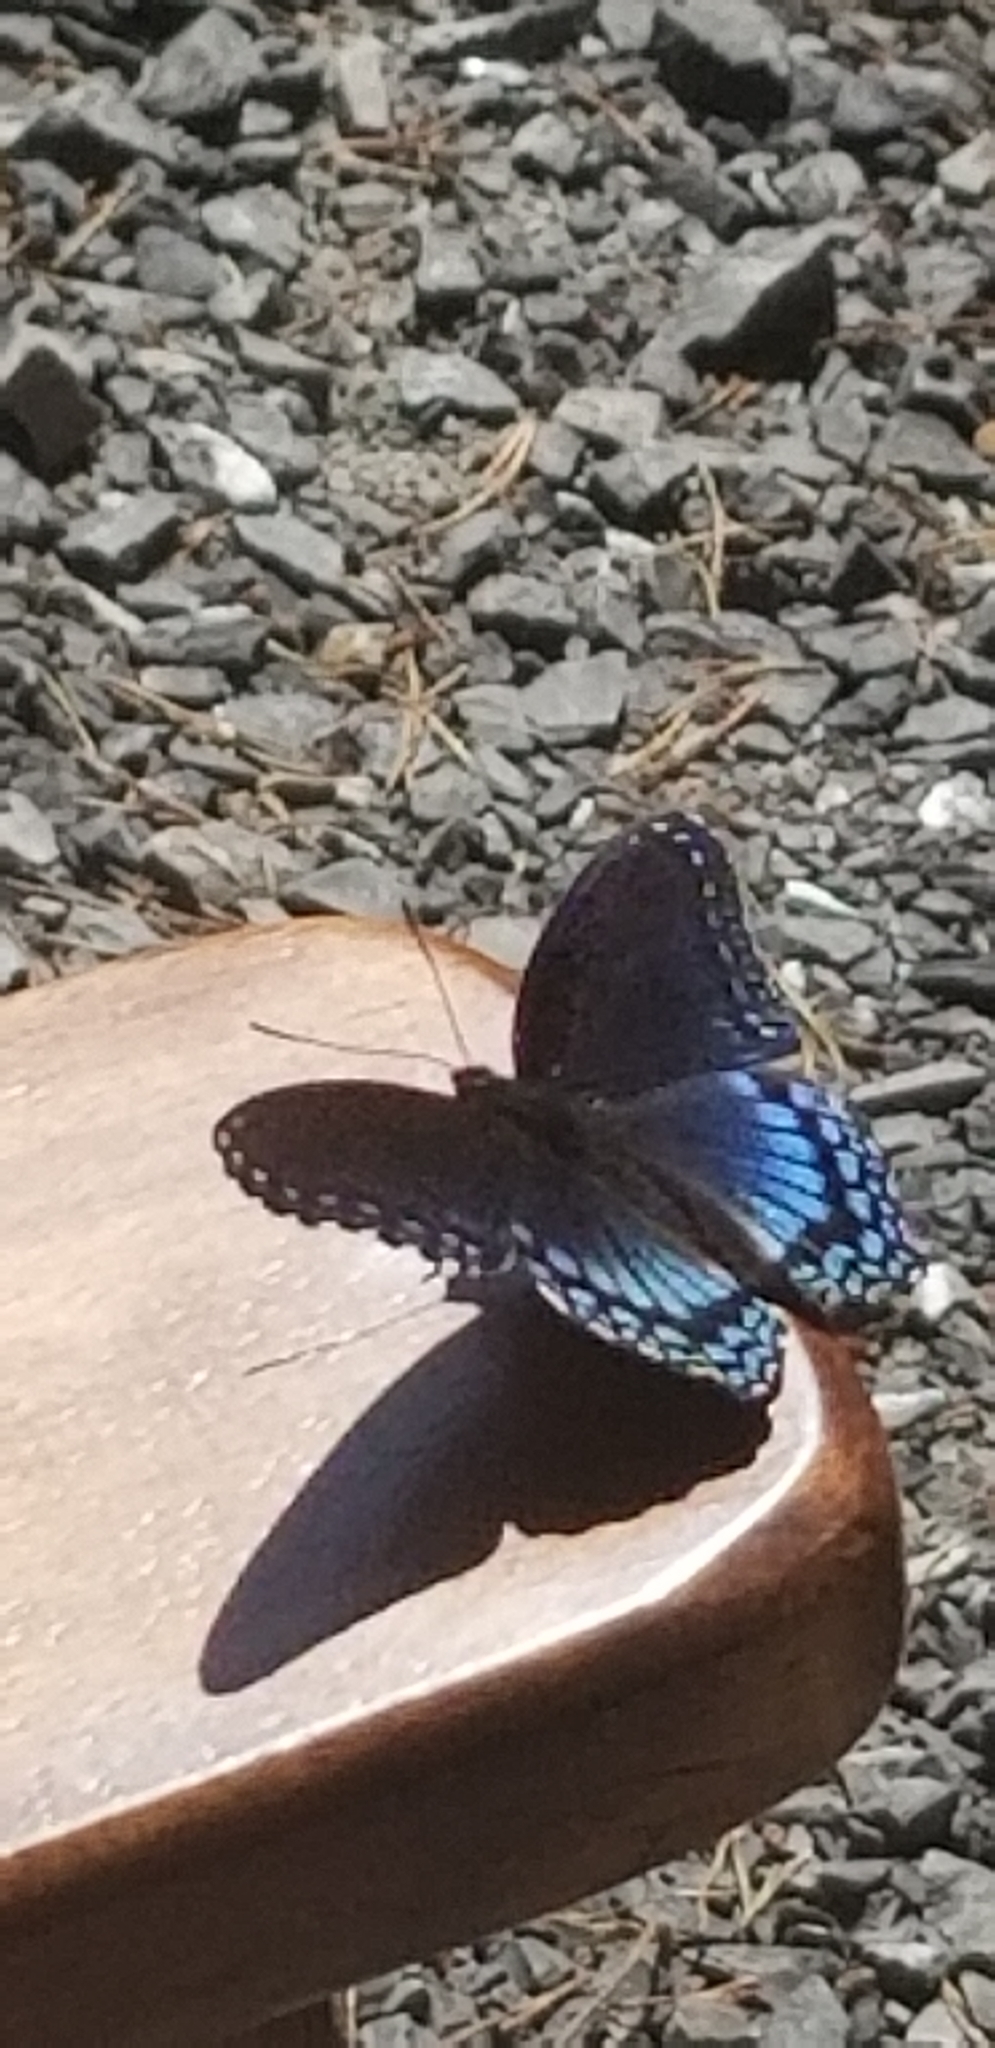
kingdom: Animalia
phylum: Arthropoda
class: Insecta
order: Lepidoptera
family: Nymphalidae
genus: Limenitis
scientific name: Limenitis astyanax
